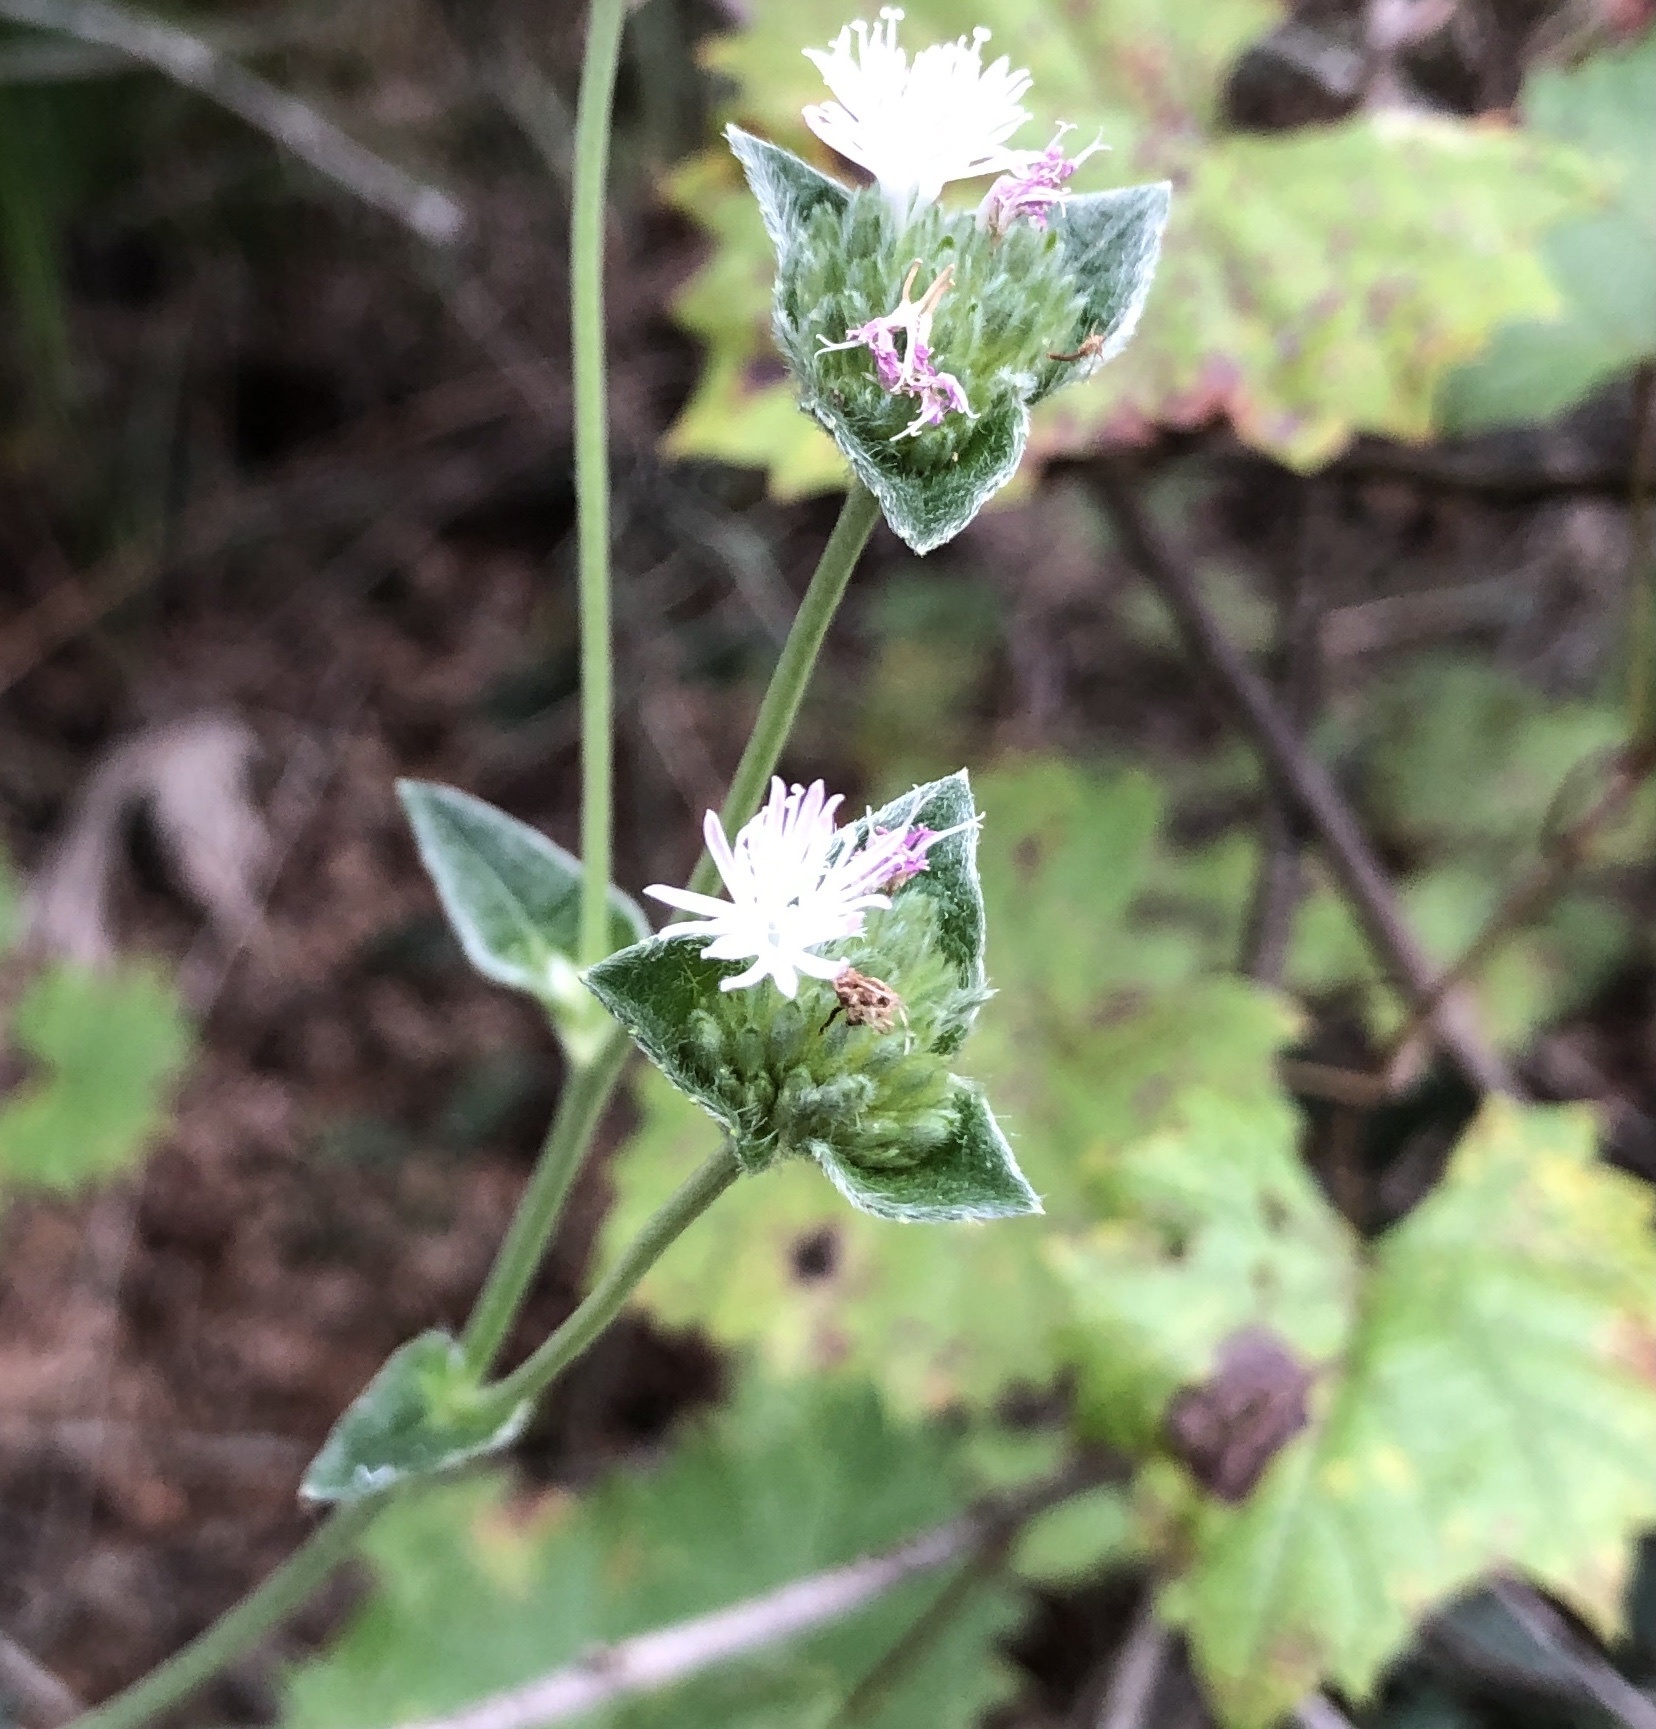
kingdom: Plantae
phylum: Tracheophyta
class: Magnoliopsida
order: Asterales
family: Asteraceae
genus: Elephantopus
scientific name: Elephantopus elatus
